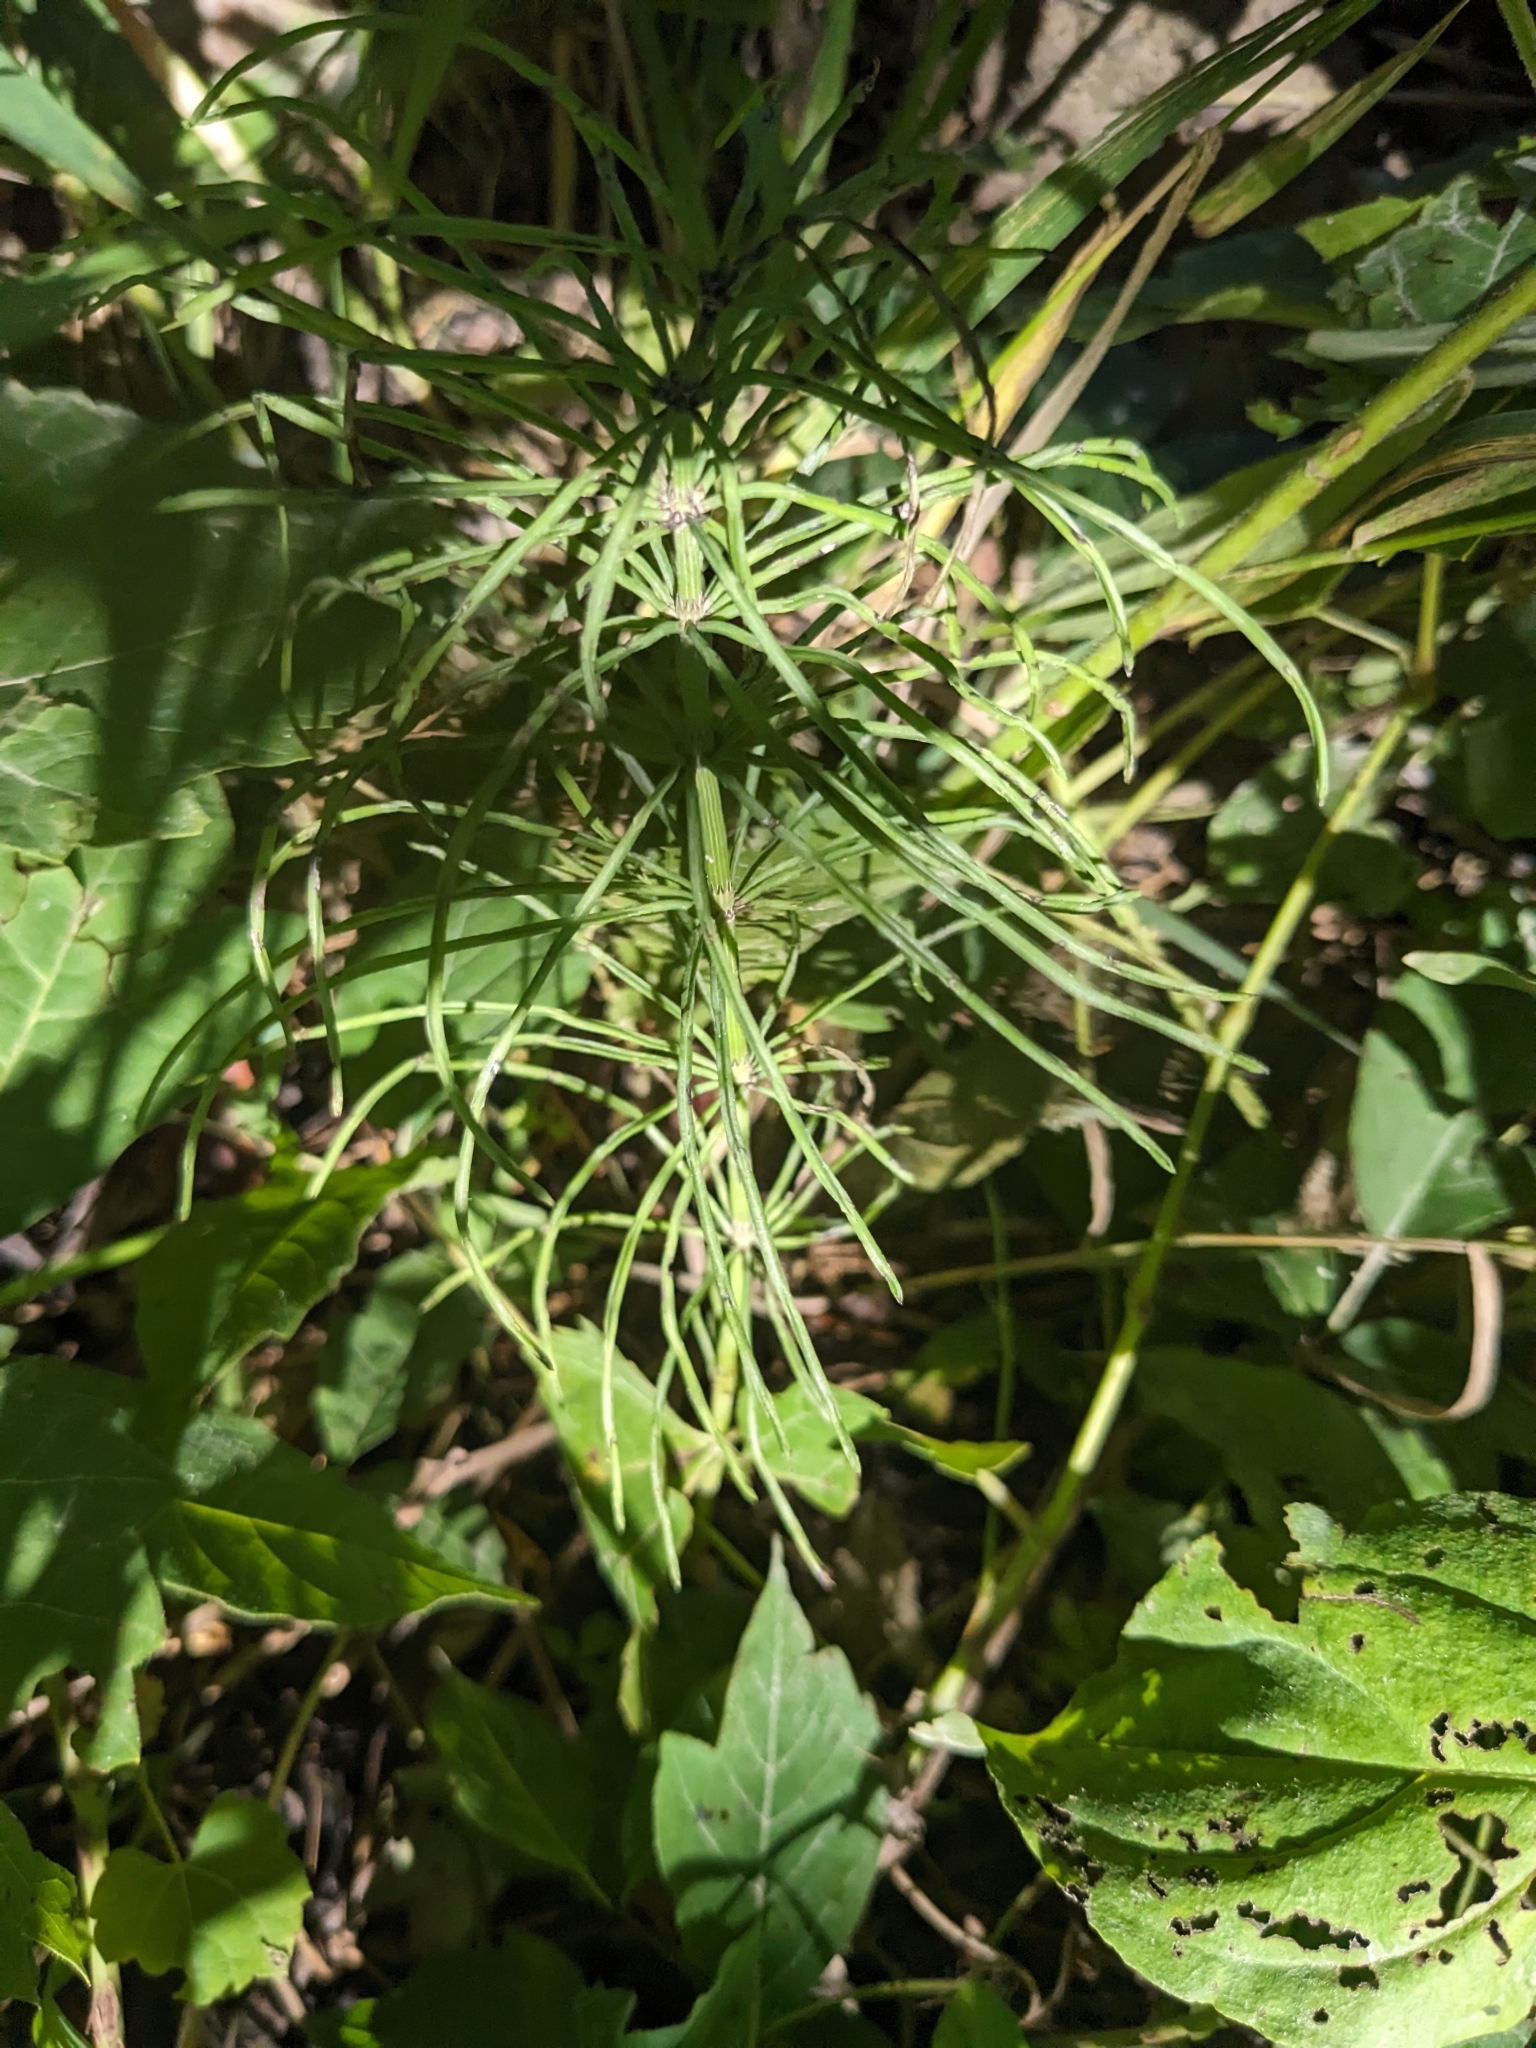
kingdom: Plantae
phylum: Tracheophyta
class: Polypodiopsida
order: Equisetales
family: Equisetaceae
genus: Equisetum
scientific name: Equisetum arvense
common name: Field horsetail
